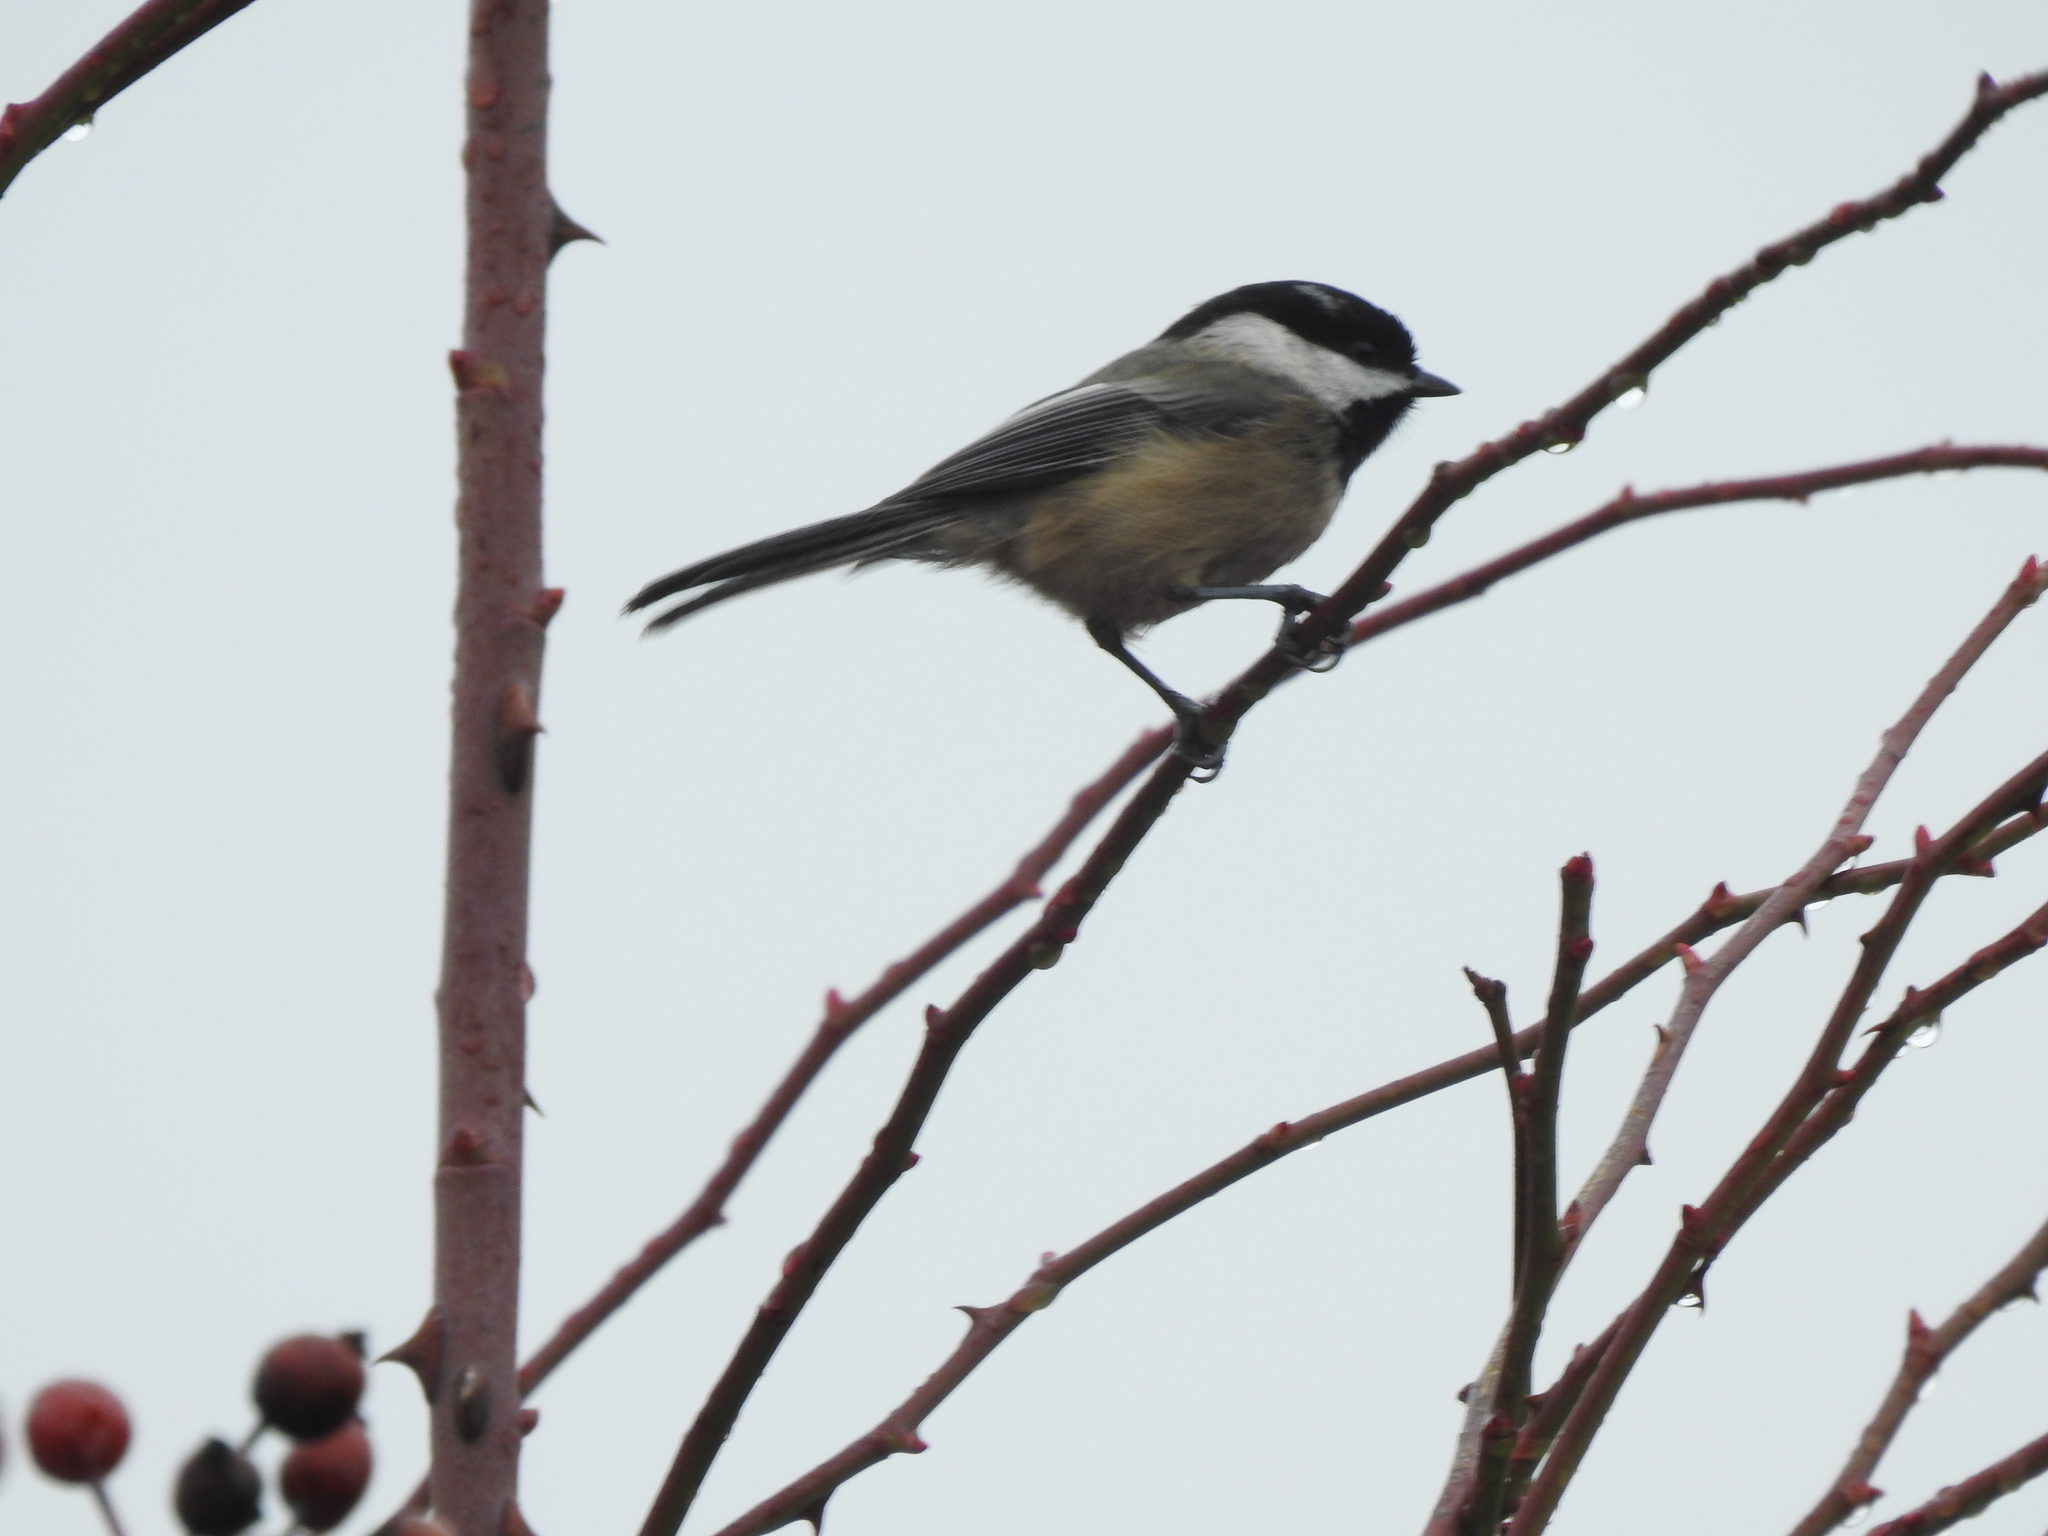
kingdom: Animalia
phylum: Chordata
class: Aves
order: Passeriformes
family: Paridae
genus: Poecile
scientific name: Poecile atricapillus
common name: Black-capped chickadee
